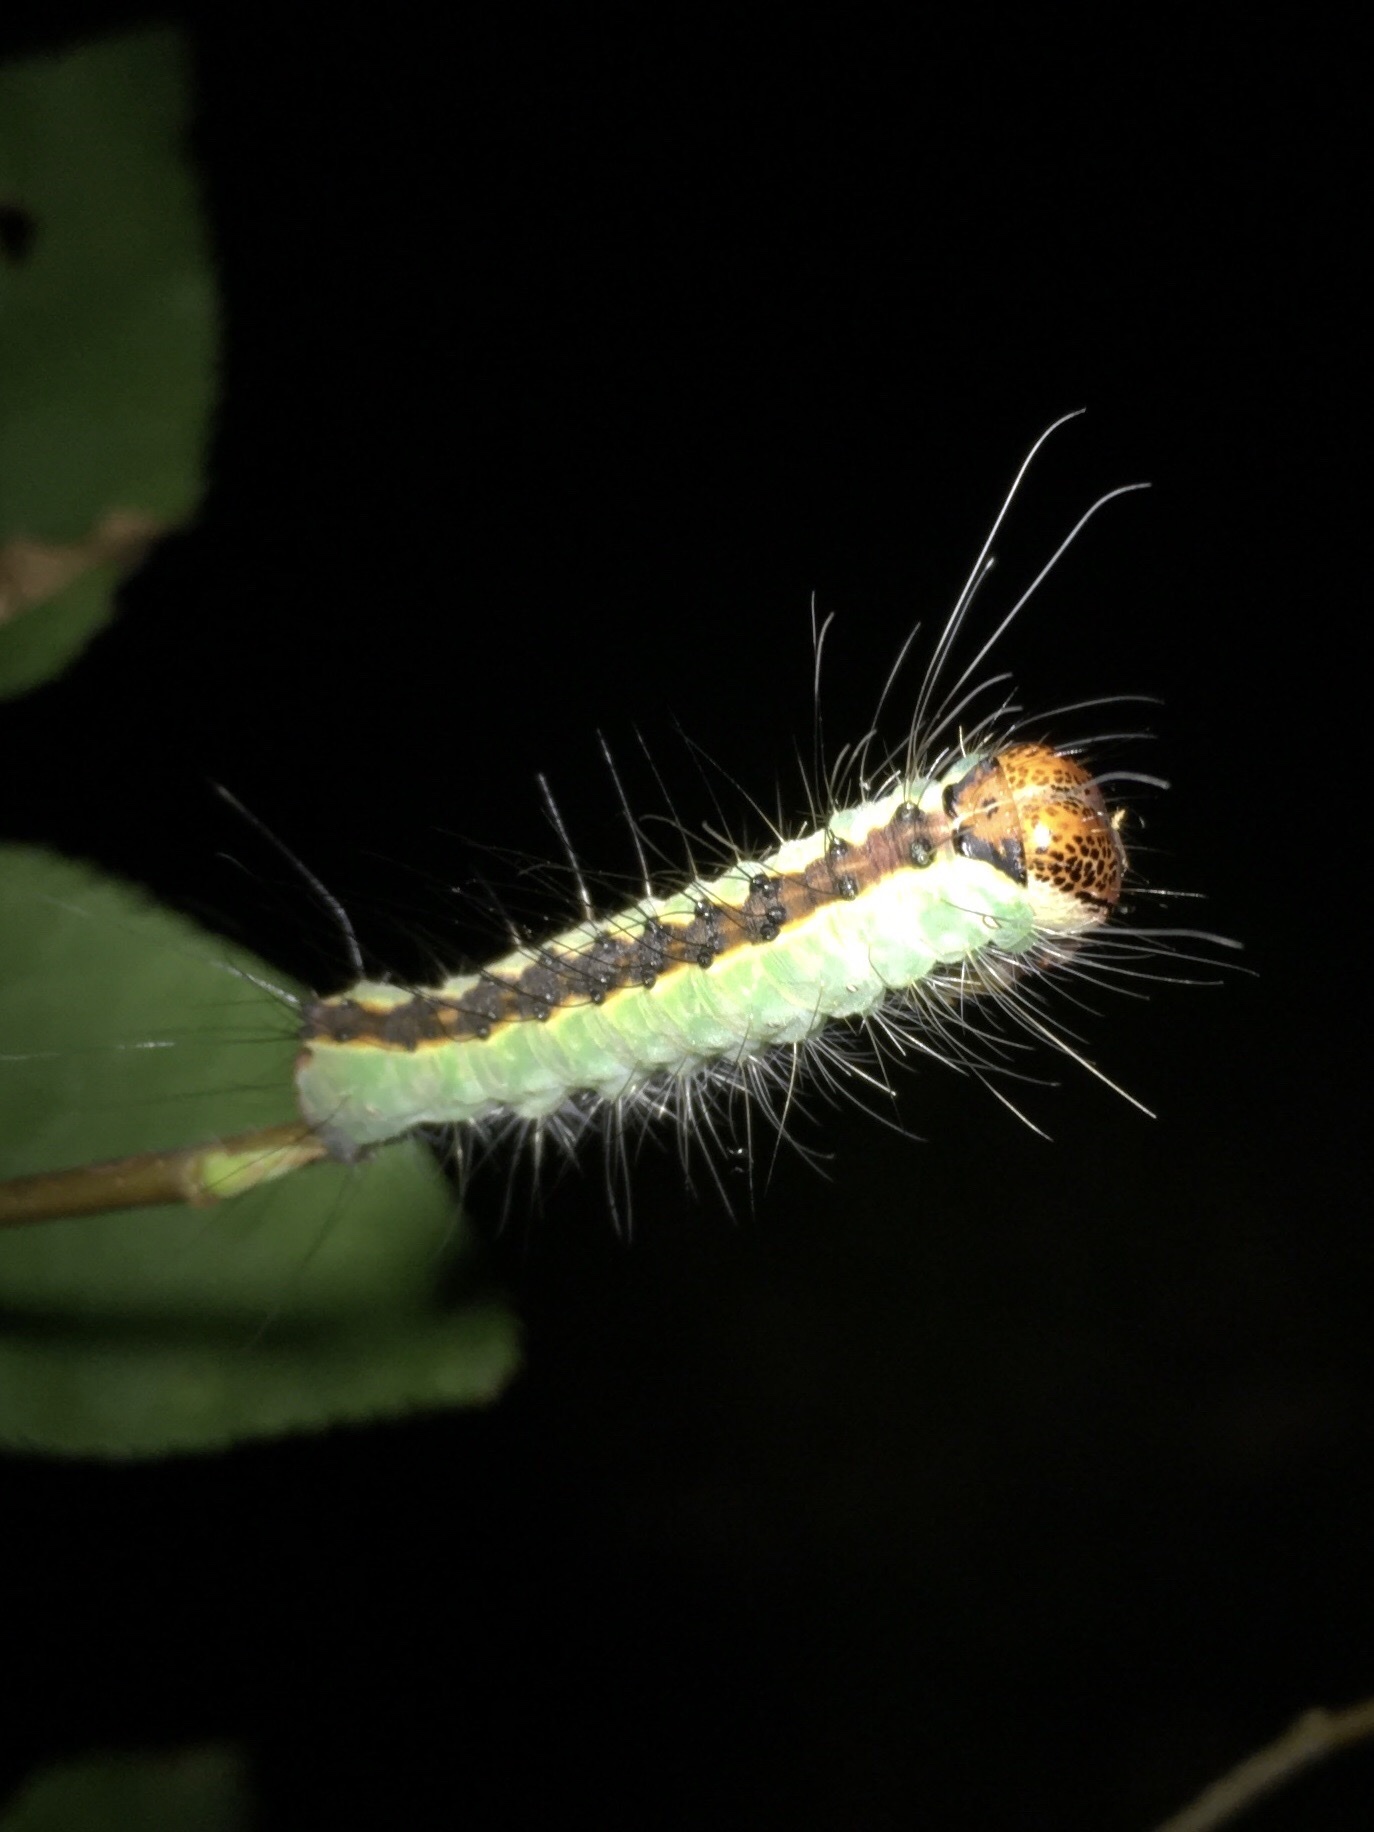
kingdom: Animalia
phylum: Arthropoda
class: Insecta
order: Lepidoptera
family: Noctuidae
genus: Acronicta
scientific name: Acronicta superans
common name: Splendid dagger
